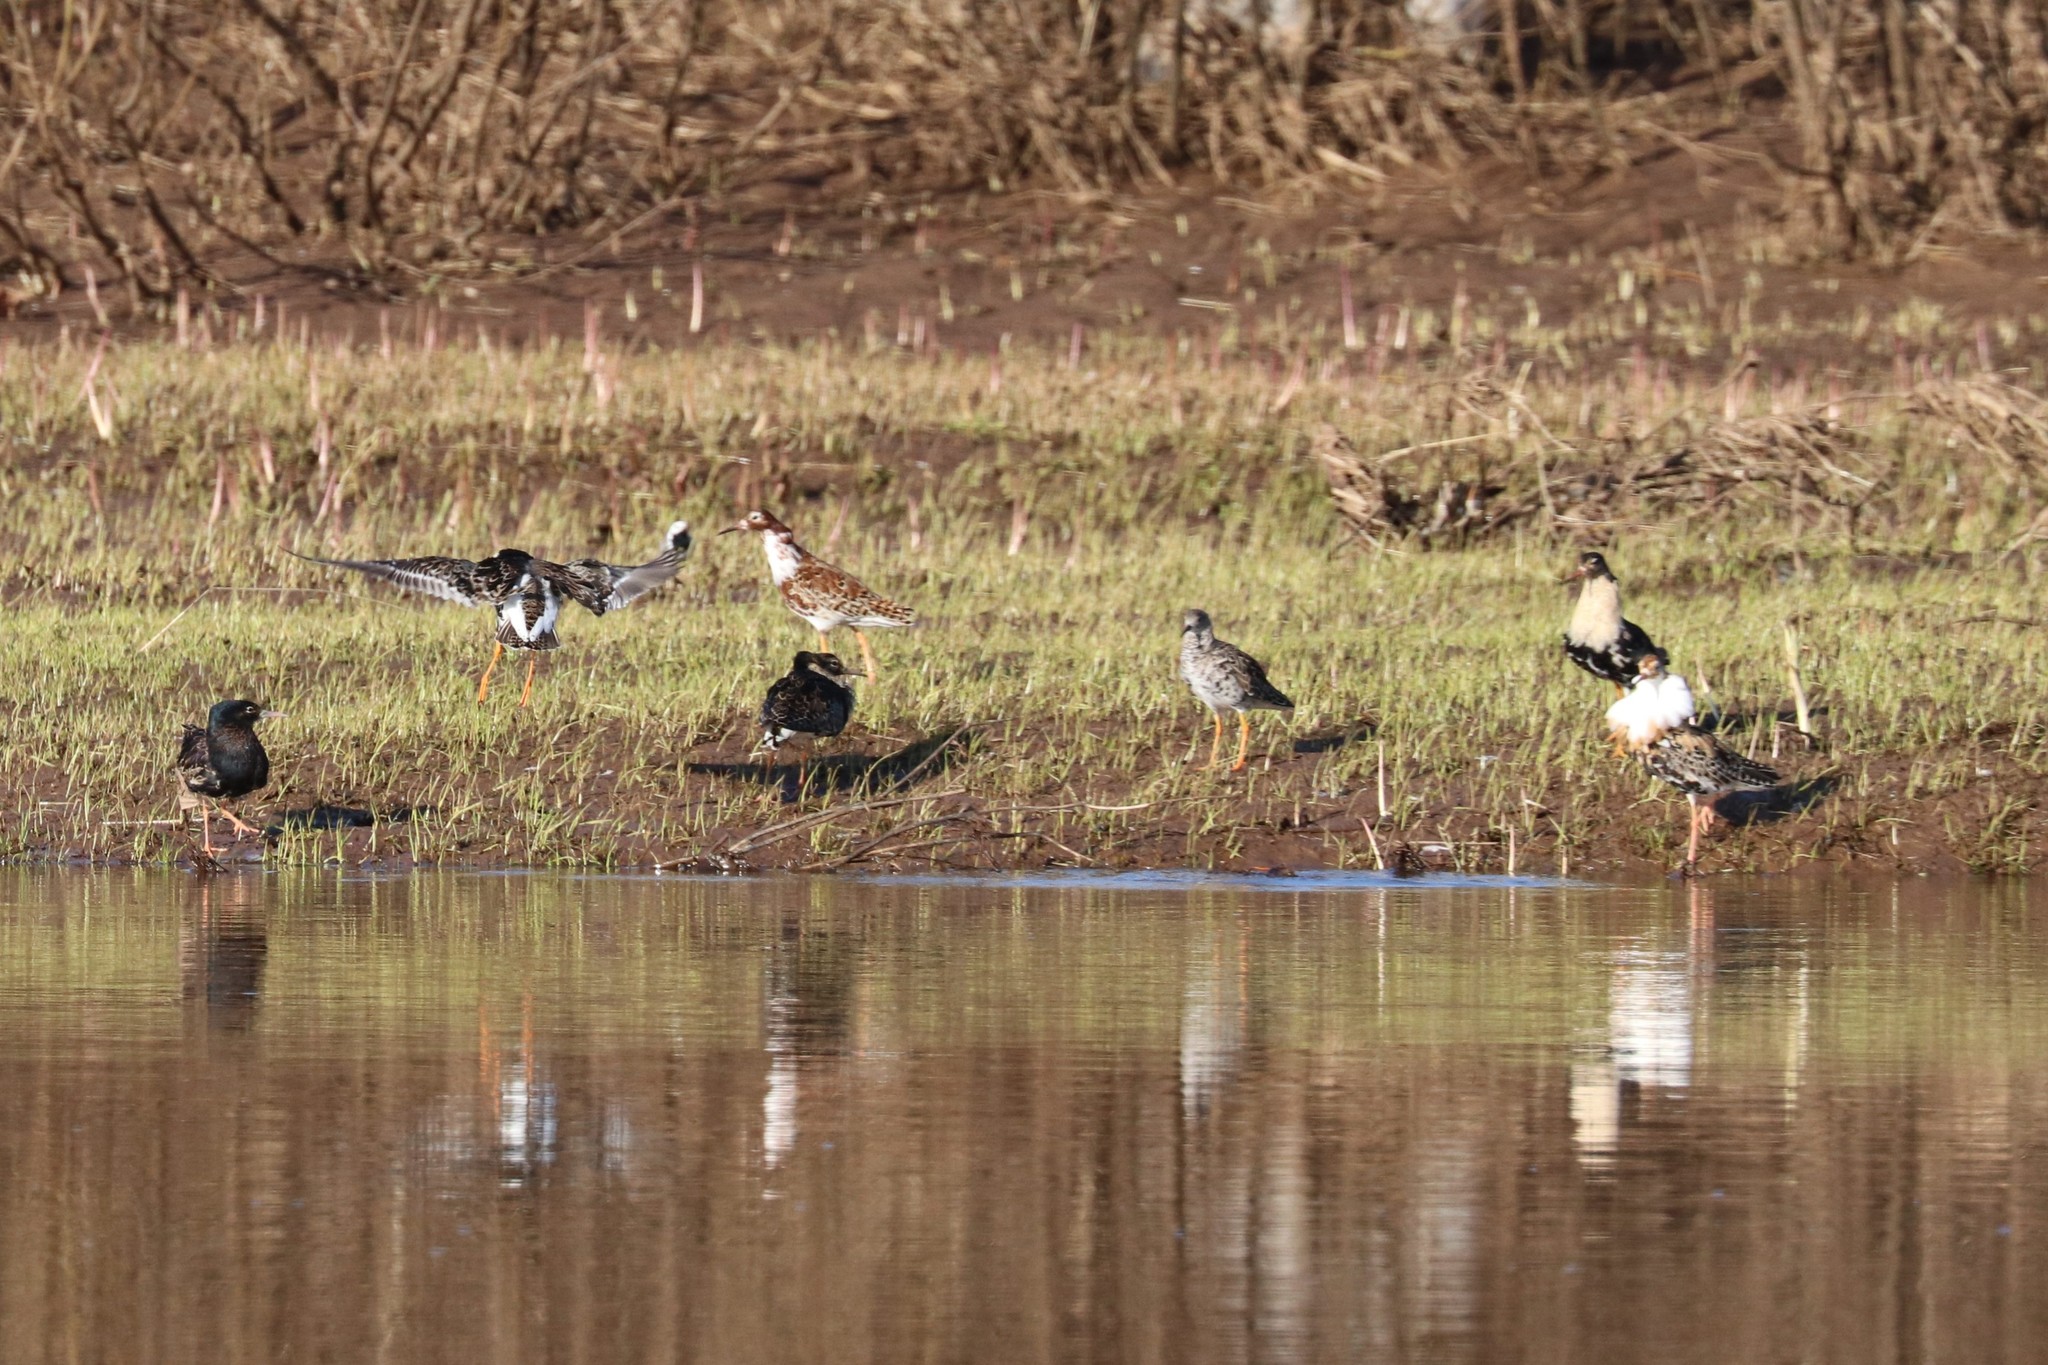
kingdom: Animalia
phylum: Chordata
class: Aves
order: Charadriiformes
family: Scolopacidae
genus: Calidris
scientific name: Calidris pugnax
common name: Ruff
